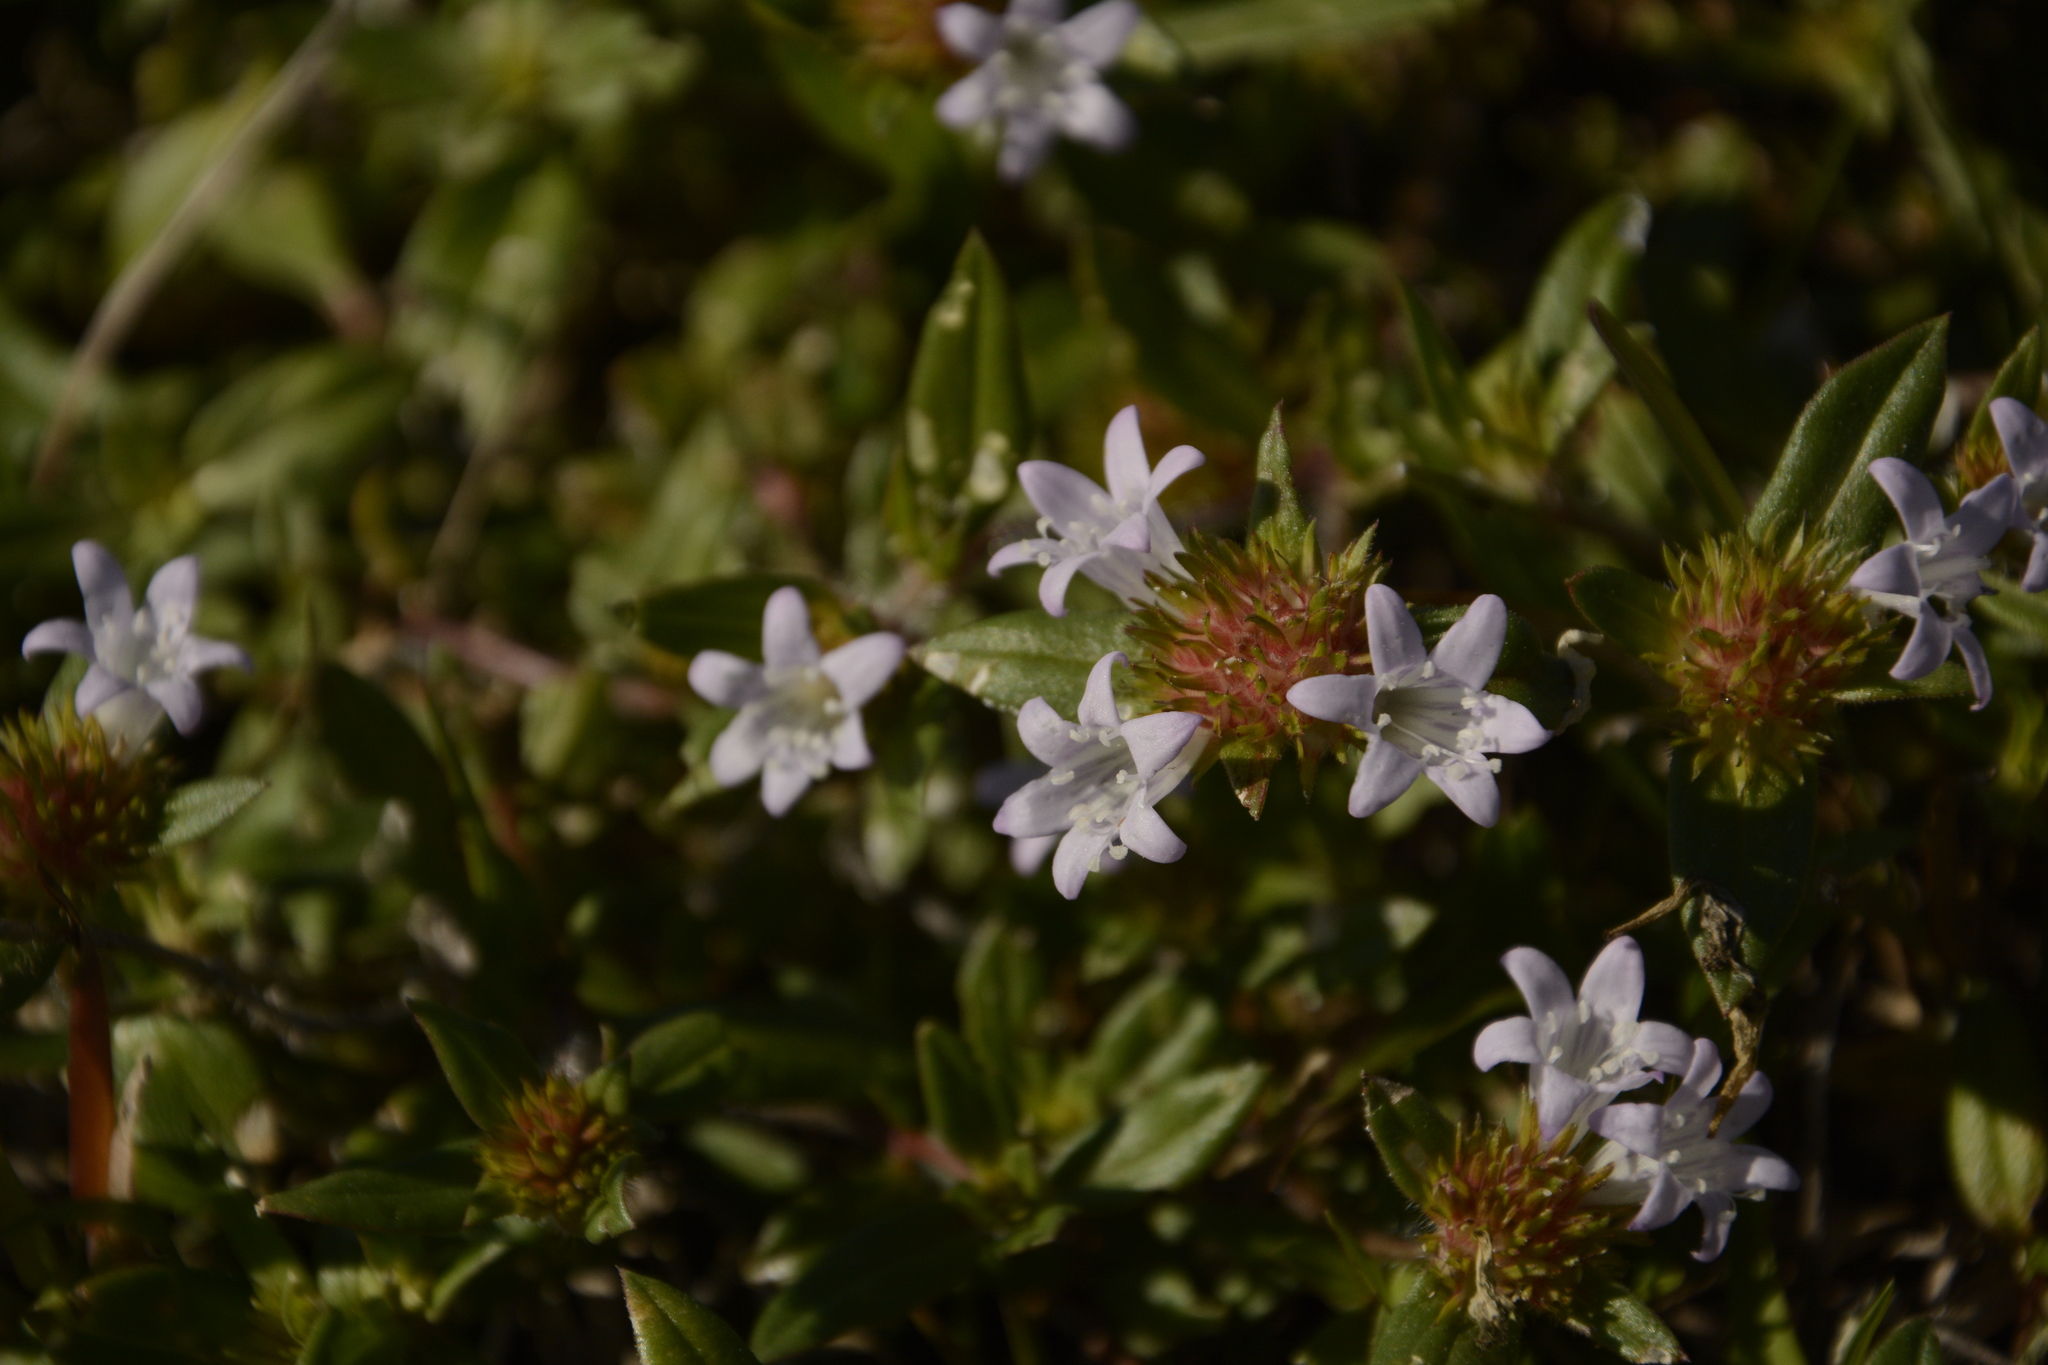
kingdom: Plantae
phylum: Tracheophyta
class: Magnoliopsida
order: Gentianales
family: Rubiaceae
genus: Richardia
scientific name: Richardia grandiflora
